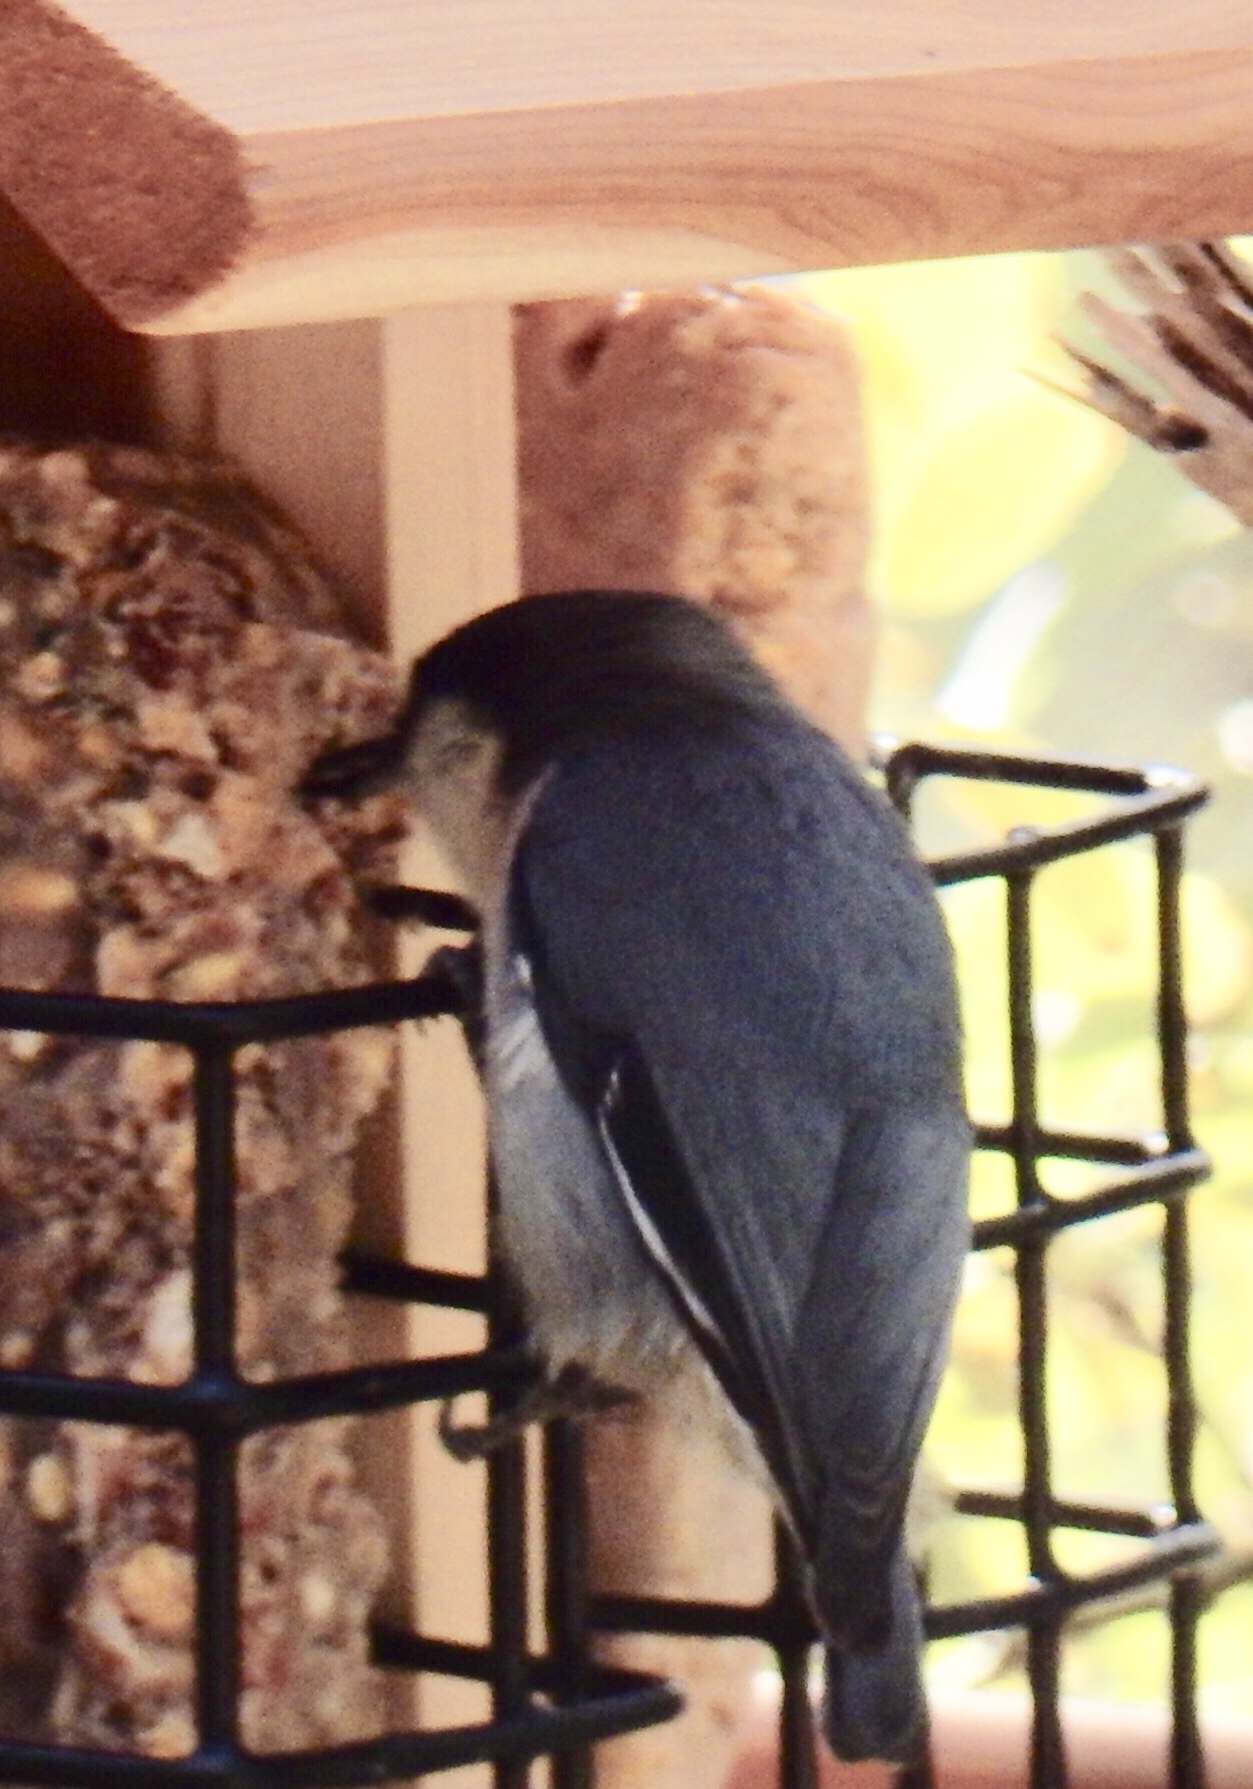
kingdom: Animalia
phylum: Chordata
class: Aves
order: Passeriformes
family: Sittidae
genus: Sitta
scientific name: Sitta pygmaea
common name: Pygmy nuthatch
